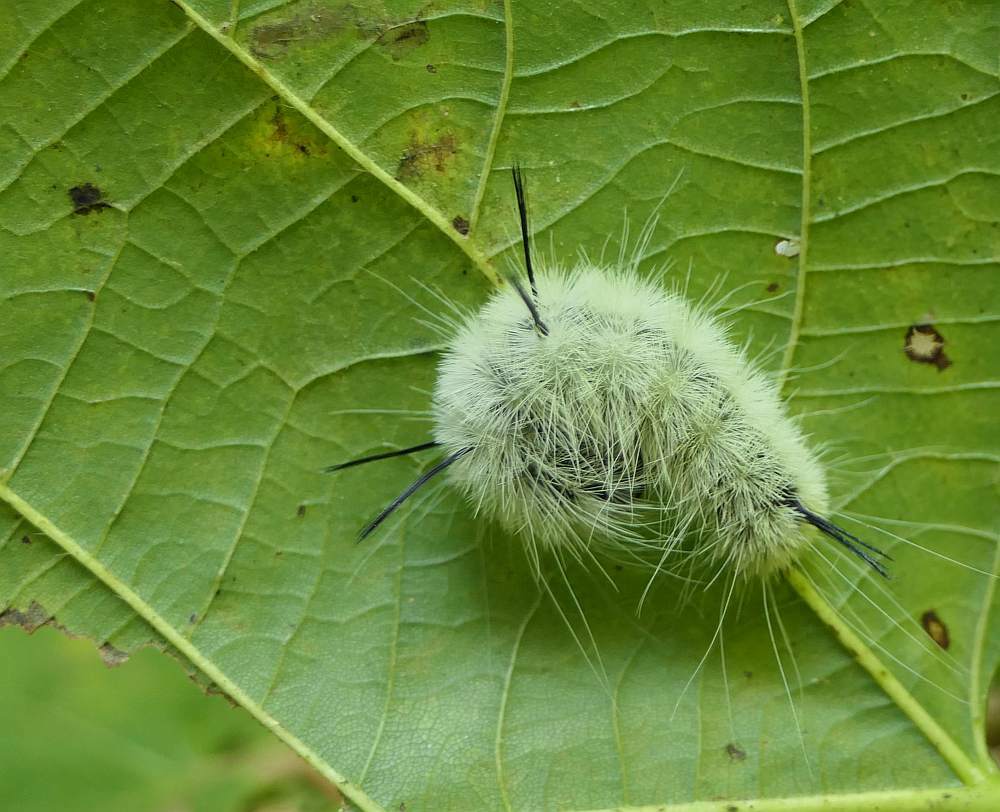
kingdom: Animalia
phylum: Arthropoda
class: Insecta
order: Lepidoptera
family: Noctuidae
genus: Acronicta
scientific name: Acronicta americana
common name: American dagger
